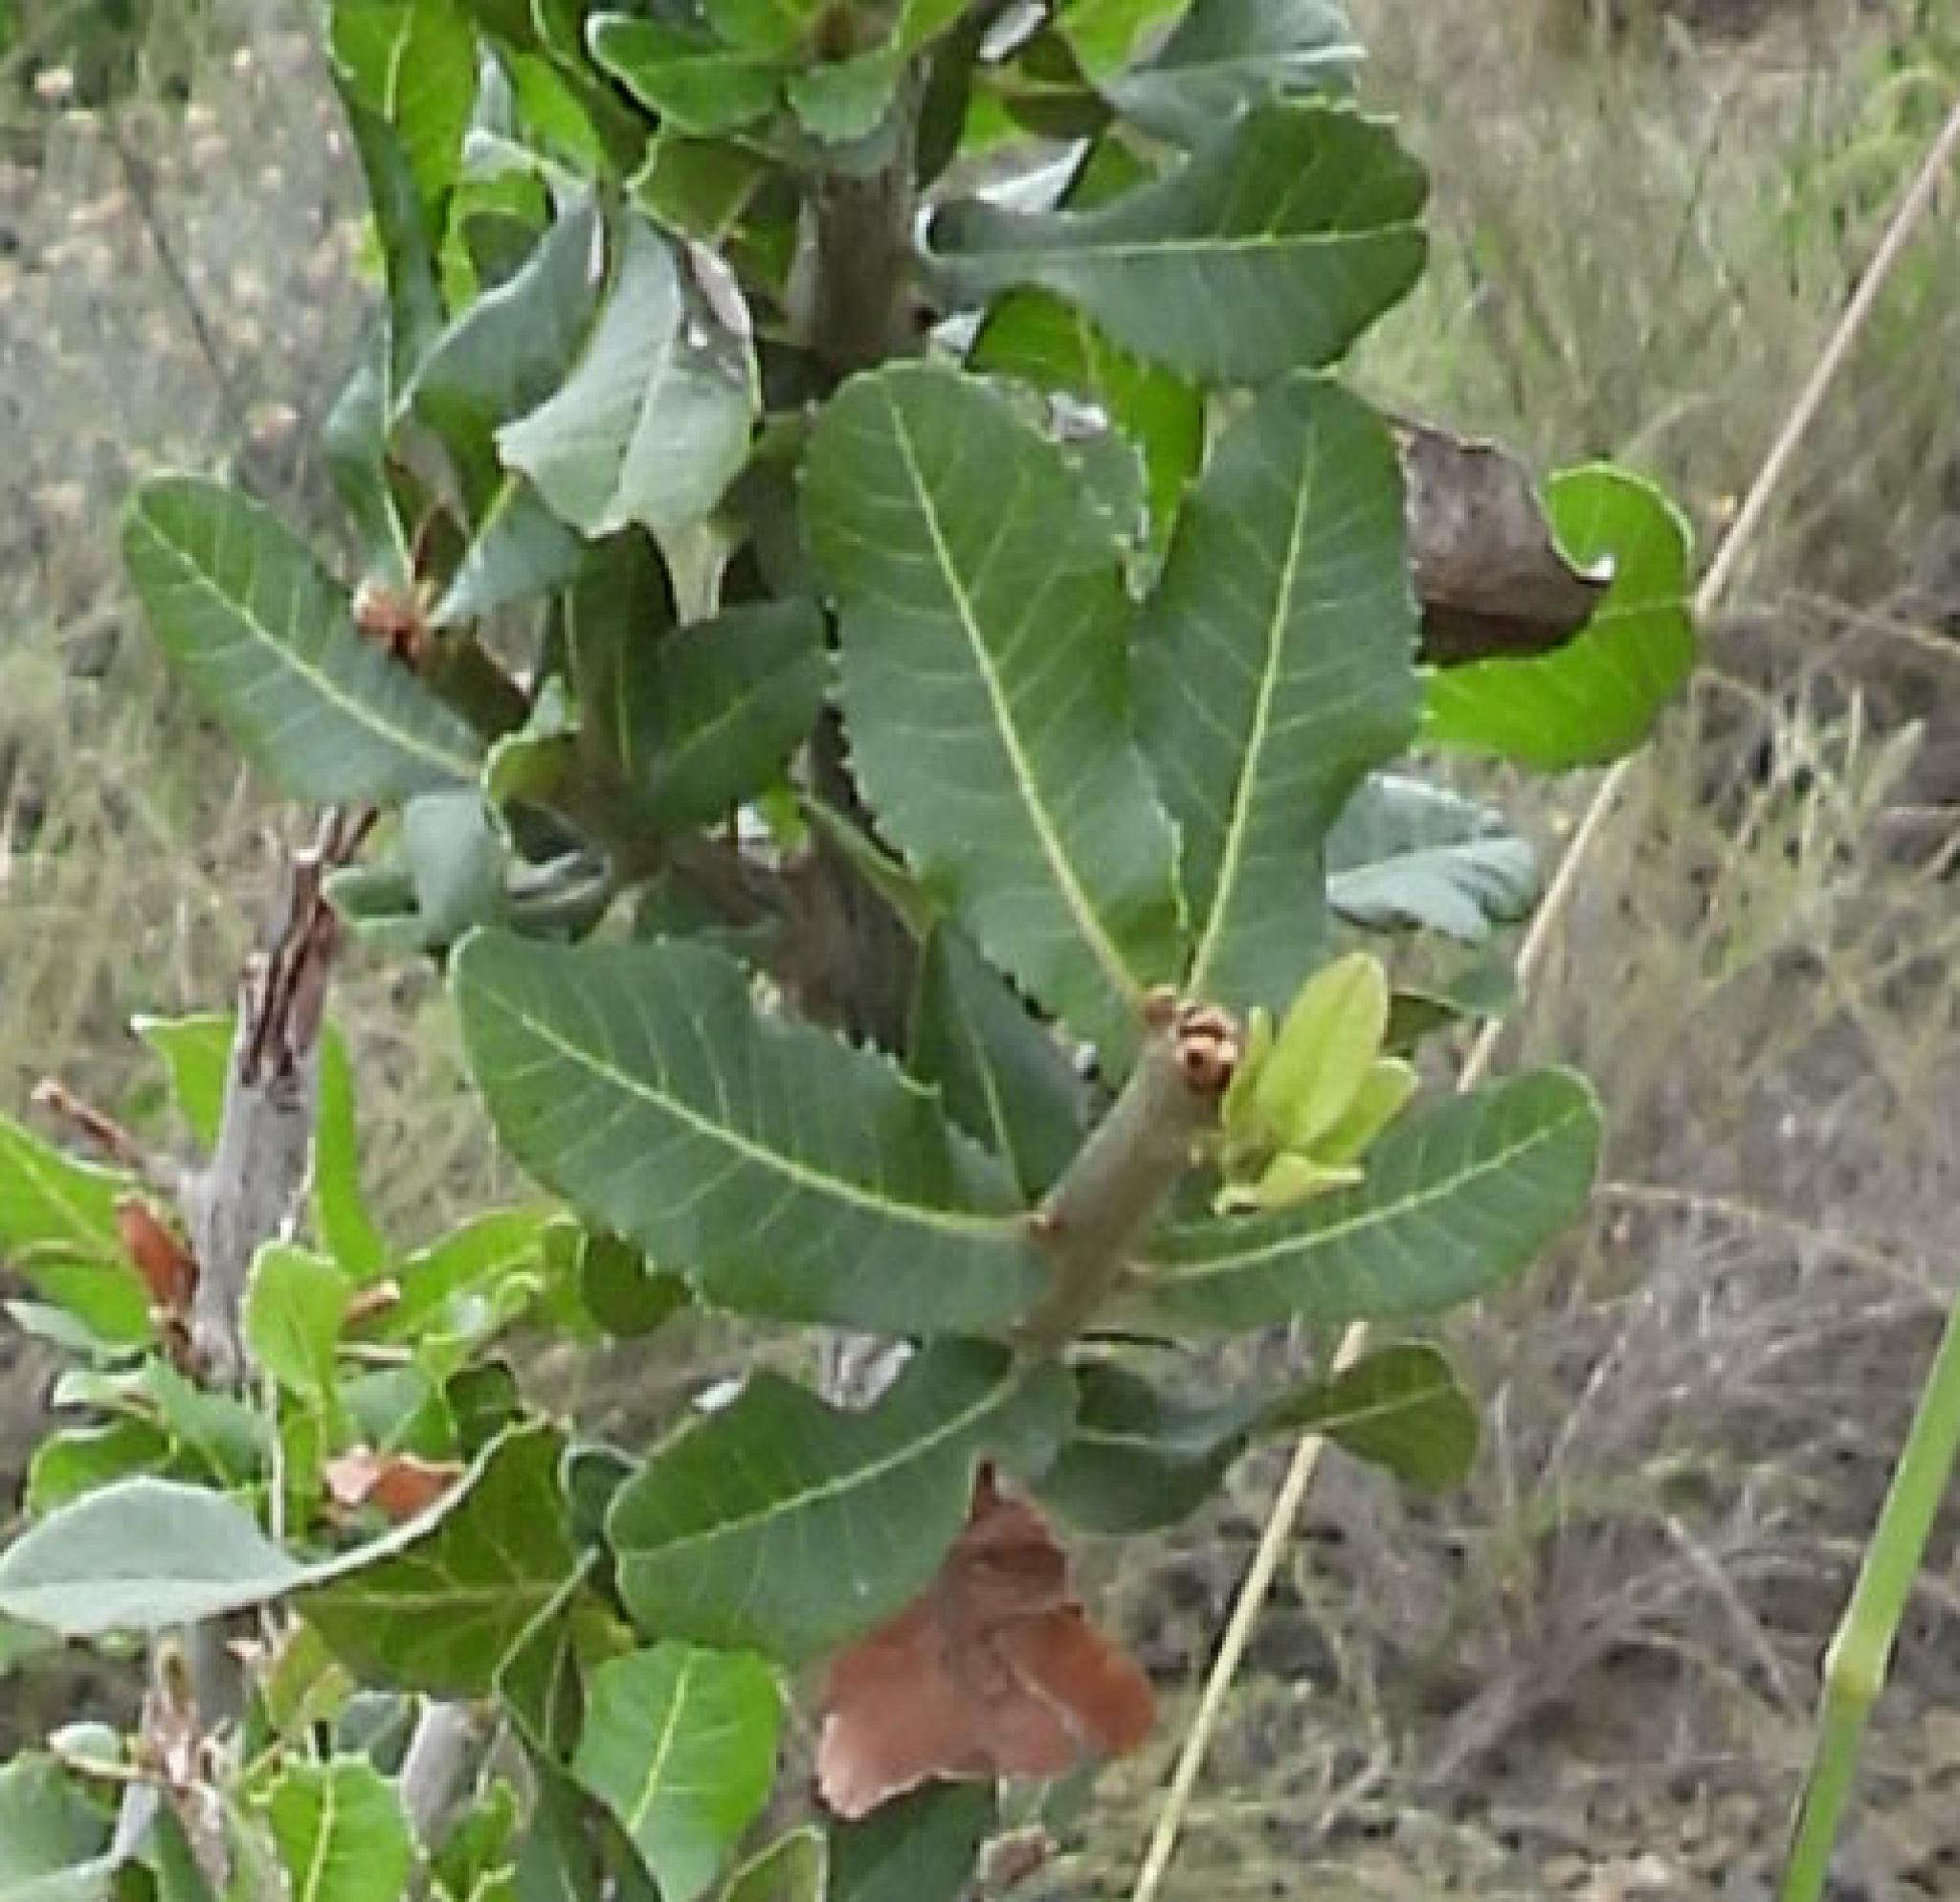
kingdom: Plantae
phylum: Tracheophyta
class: Magnoliopsida
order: Sapindales
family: Sapindaceae
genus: Pappea
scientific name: Pappea capensis
